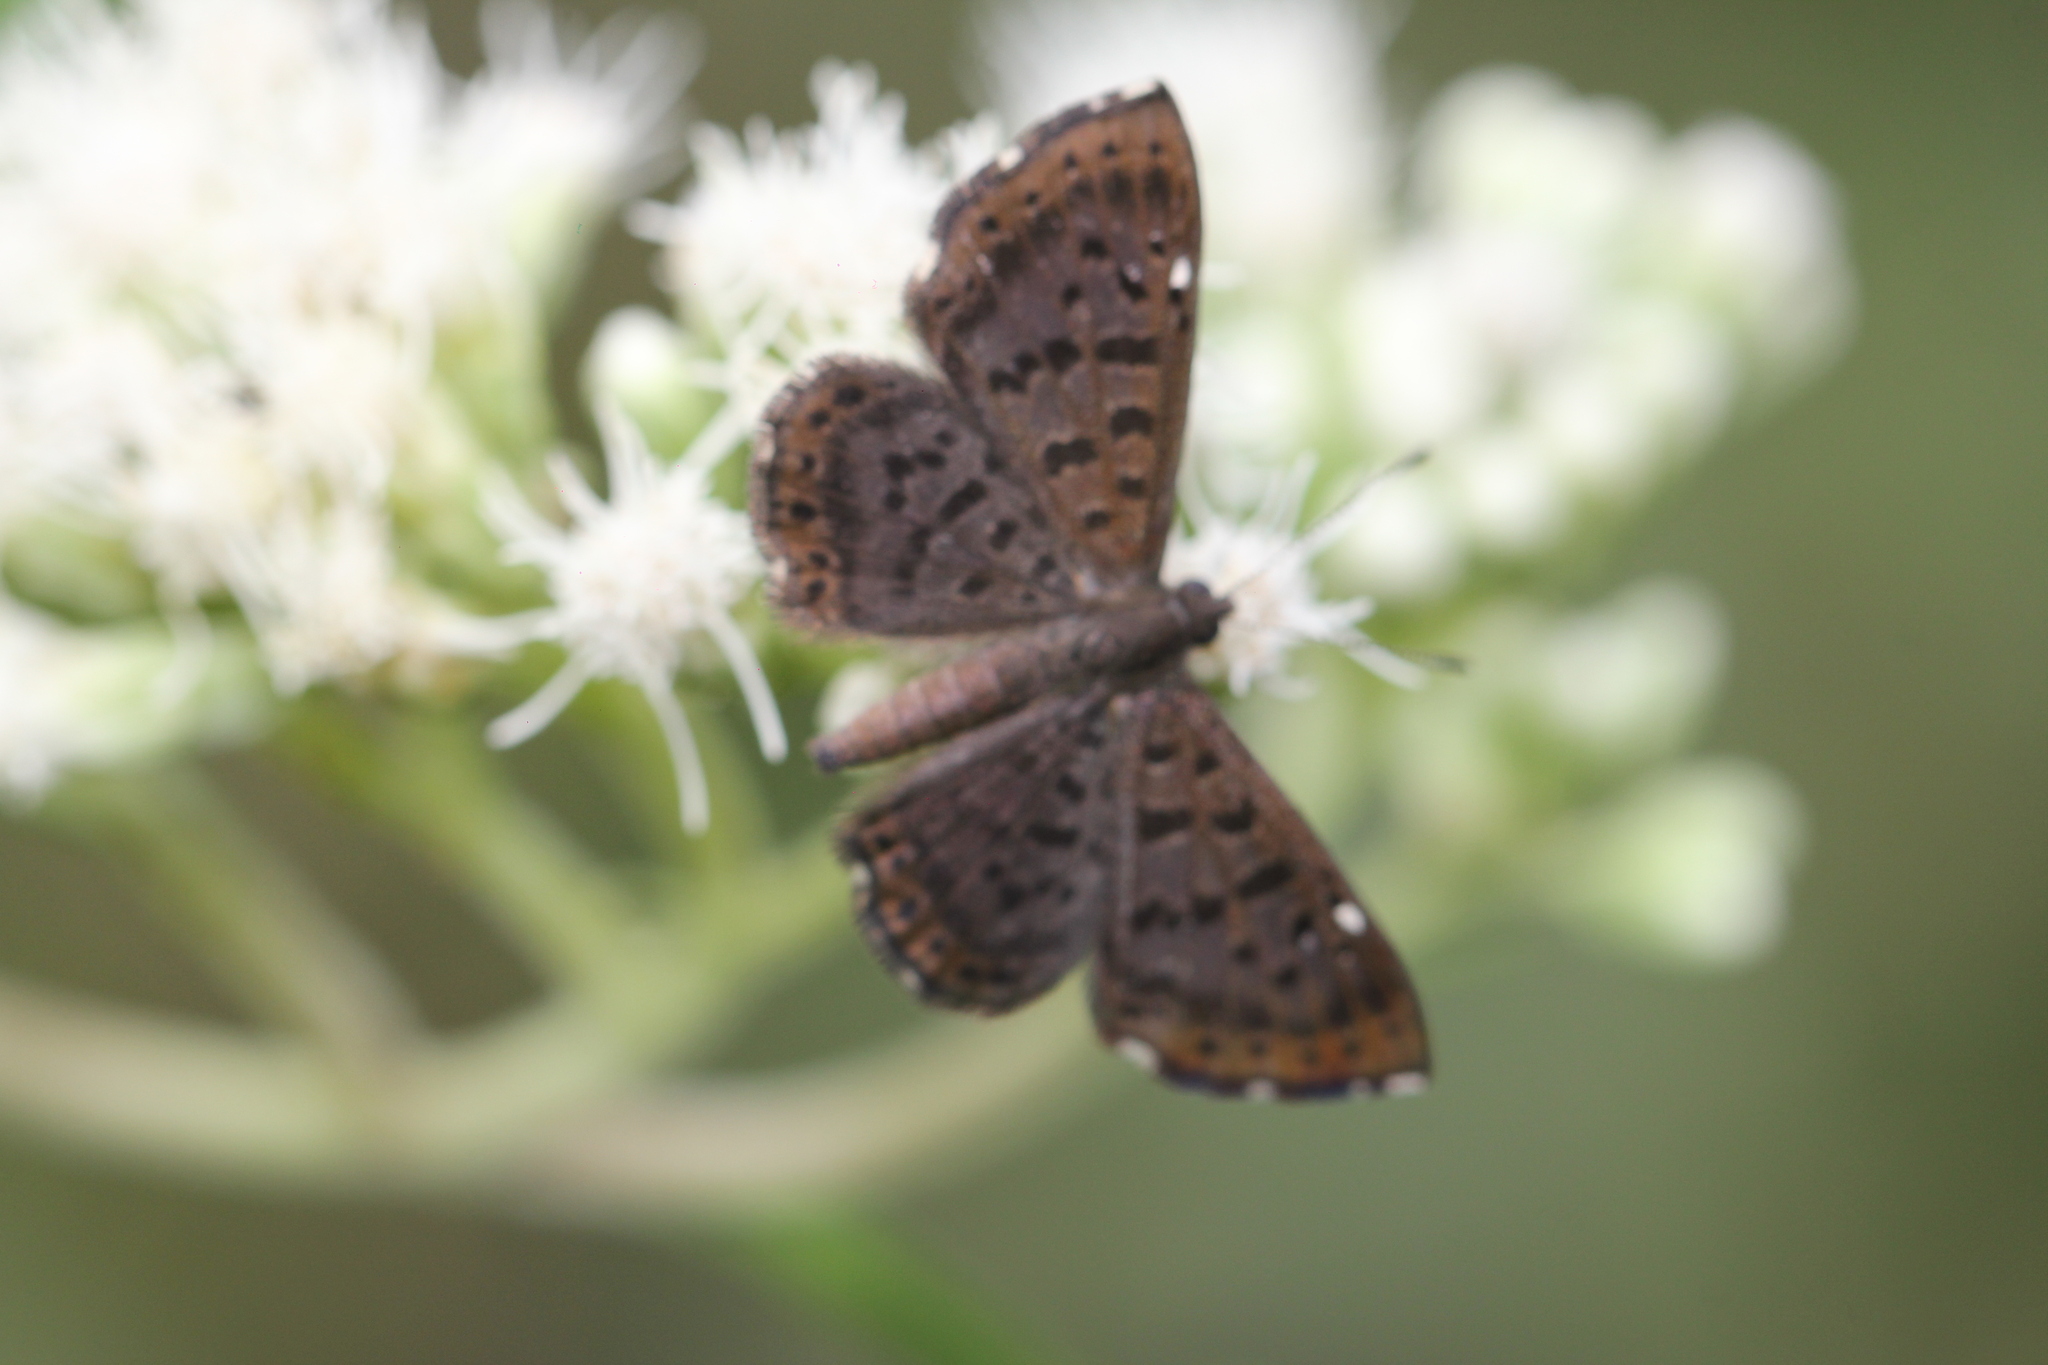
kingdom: Animalia
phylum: Arthropoda
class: Insecta
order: Lepidoptera
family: Riodinidae
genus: Teenie
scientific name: Teenie tinea
